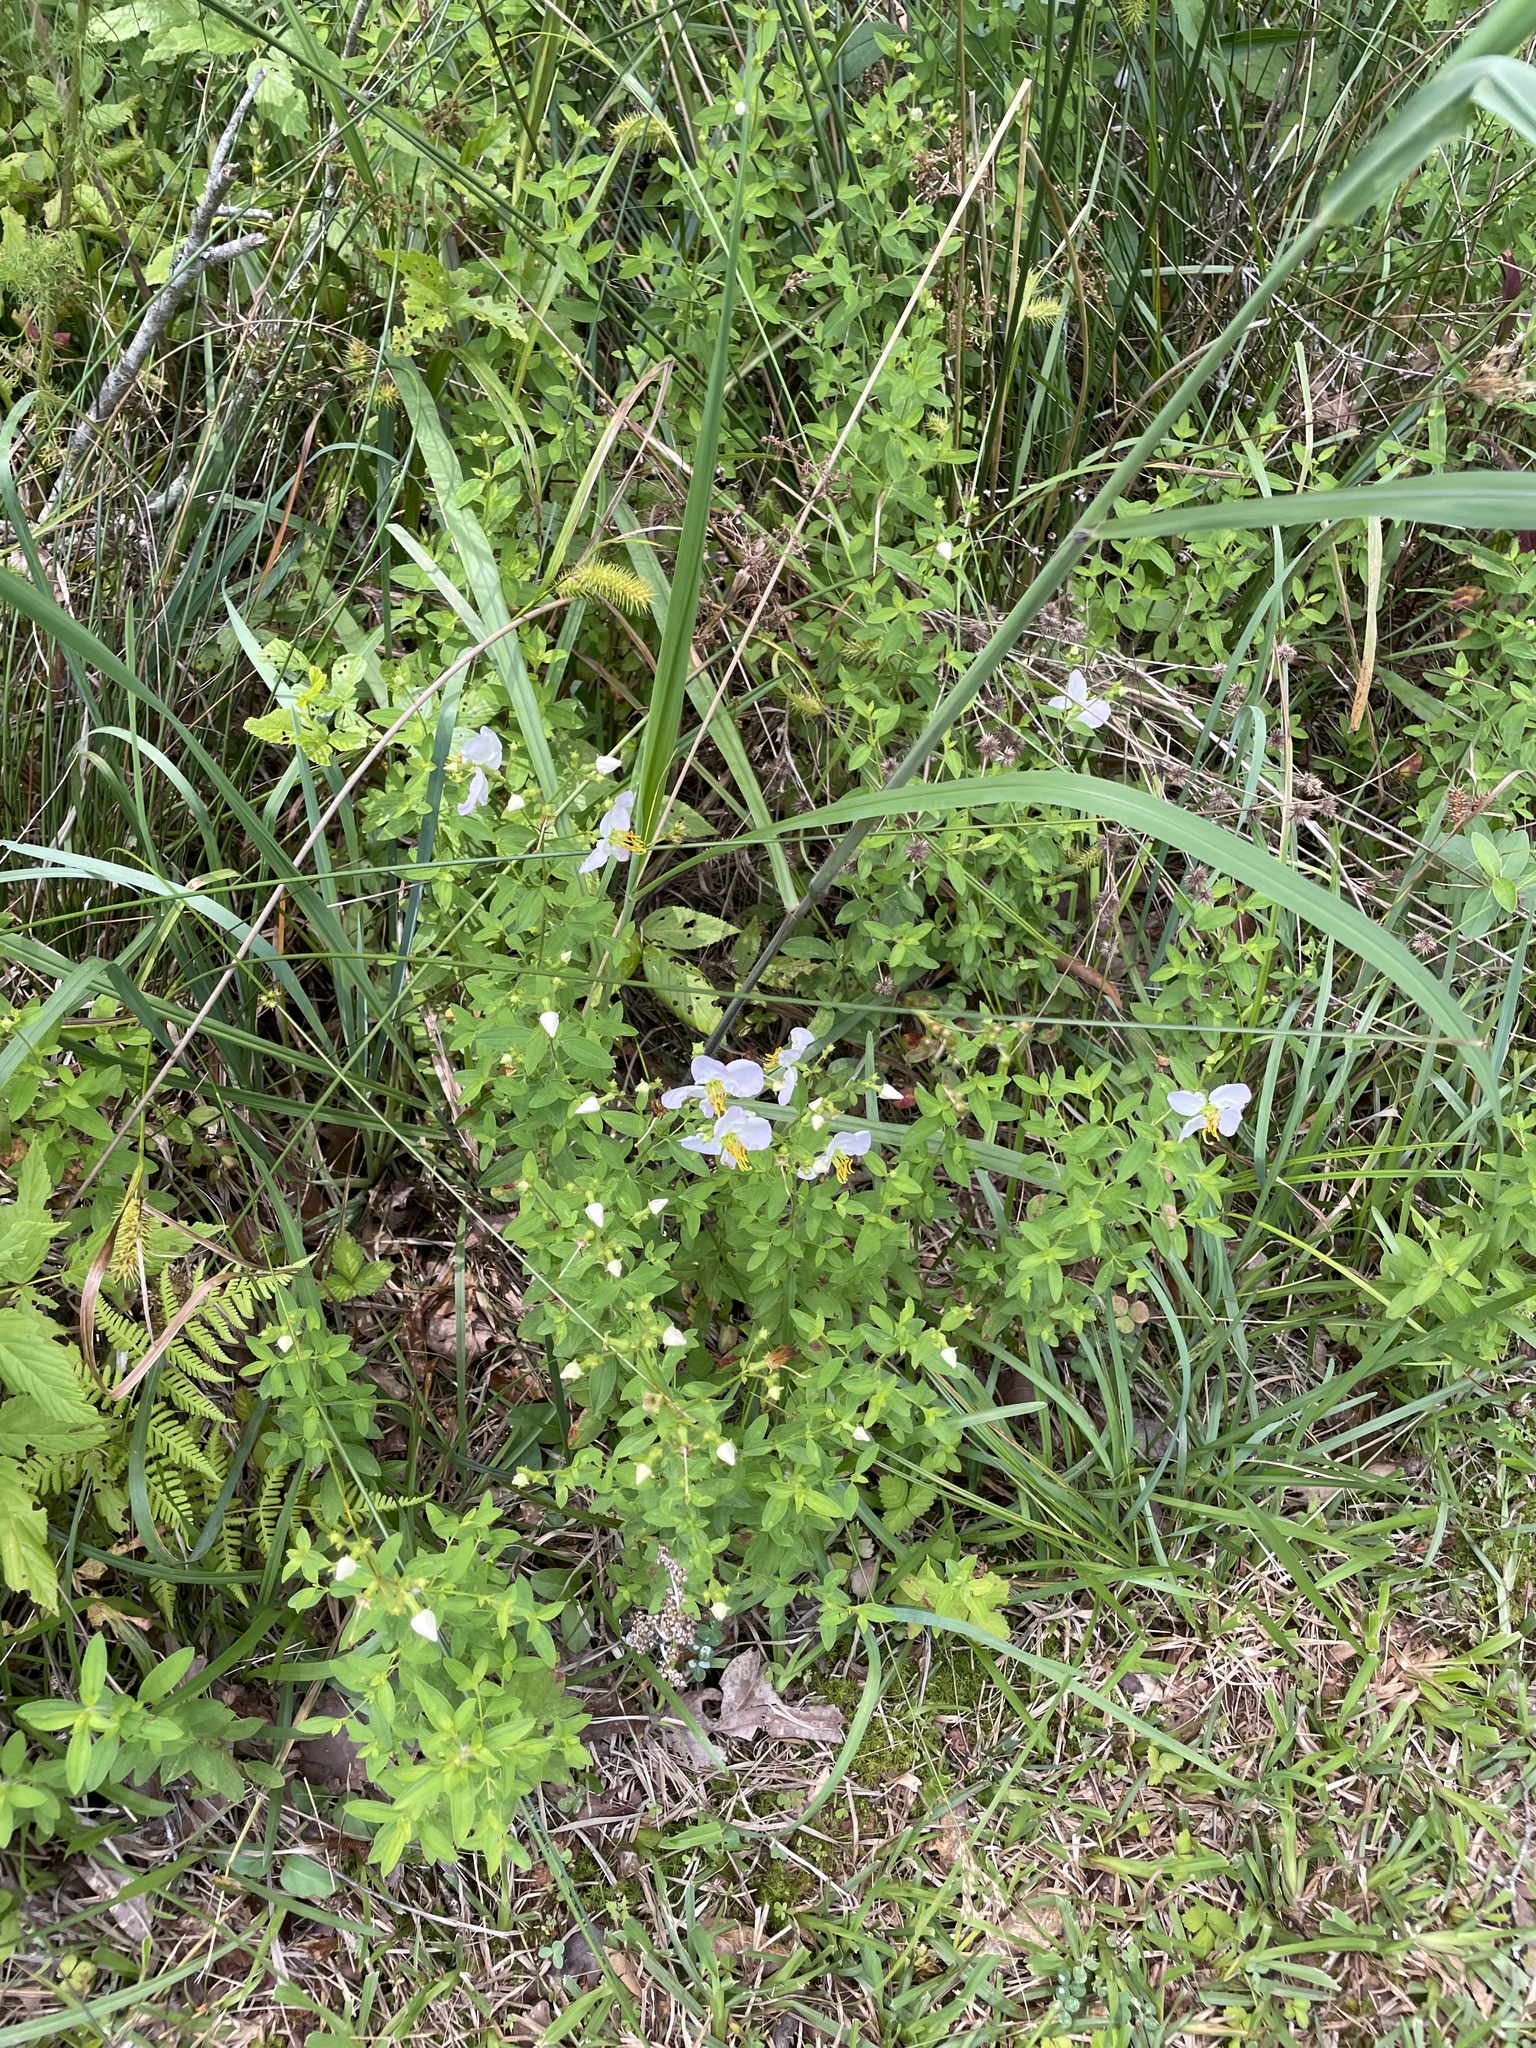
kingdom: Plantae
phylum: Tracheophyta
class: Magnoliopsida
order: Myrtales
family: Melastomataceae
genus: Rhexia
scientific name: Rhexia mariana
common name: Dull meadow-pitcher
